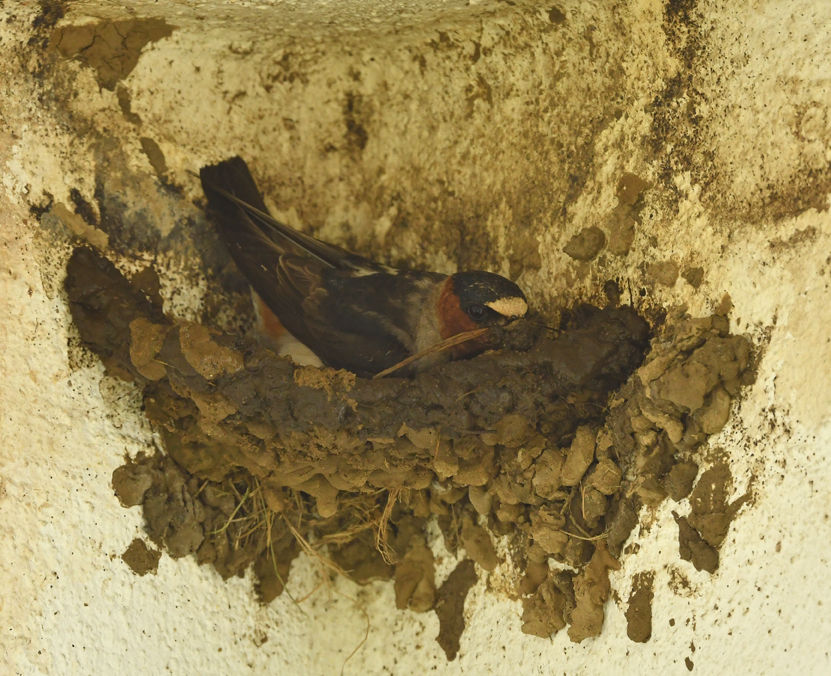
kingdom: Animalia
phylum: Chordata
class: Aves
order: Passeriformes
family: Hirundinidae
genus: Petrochelidon
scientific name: Petrochelidon pyrrhonota
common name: American cliff swallow
